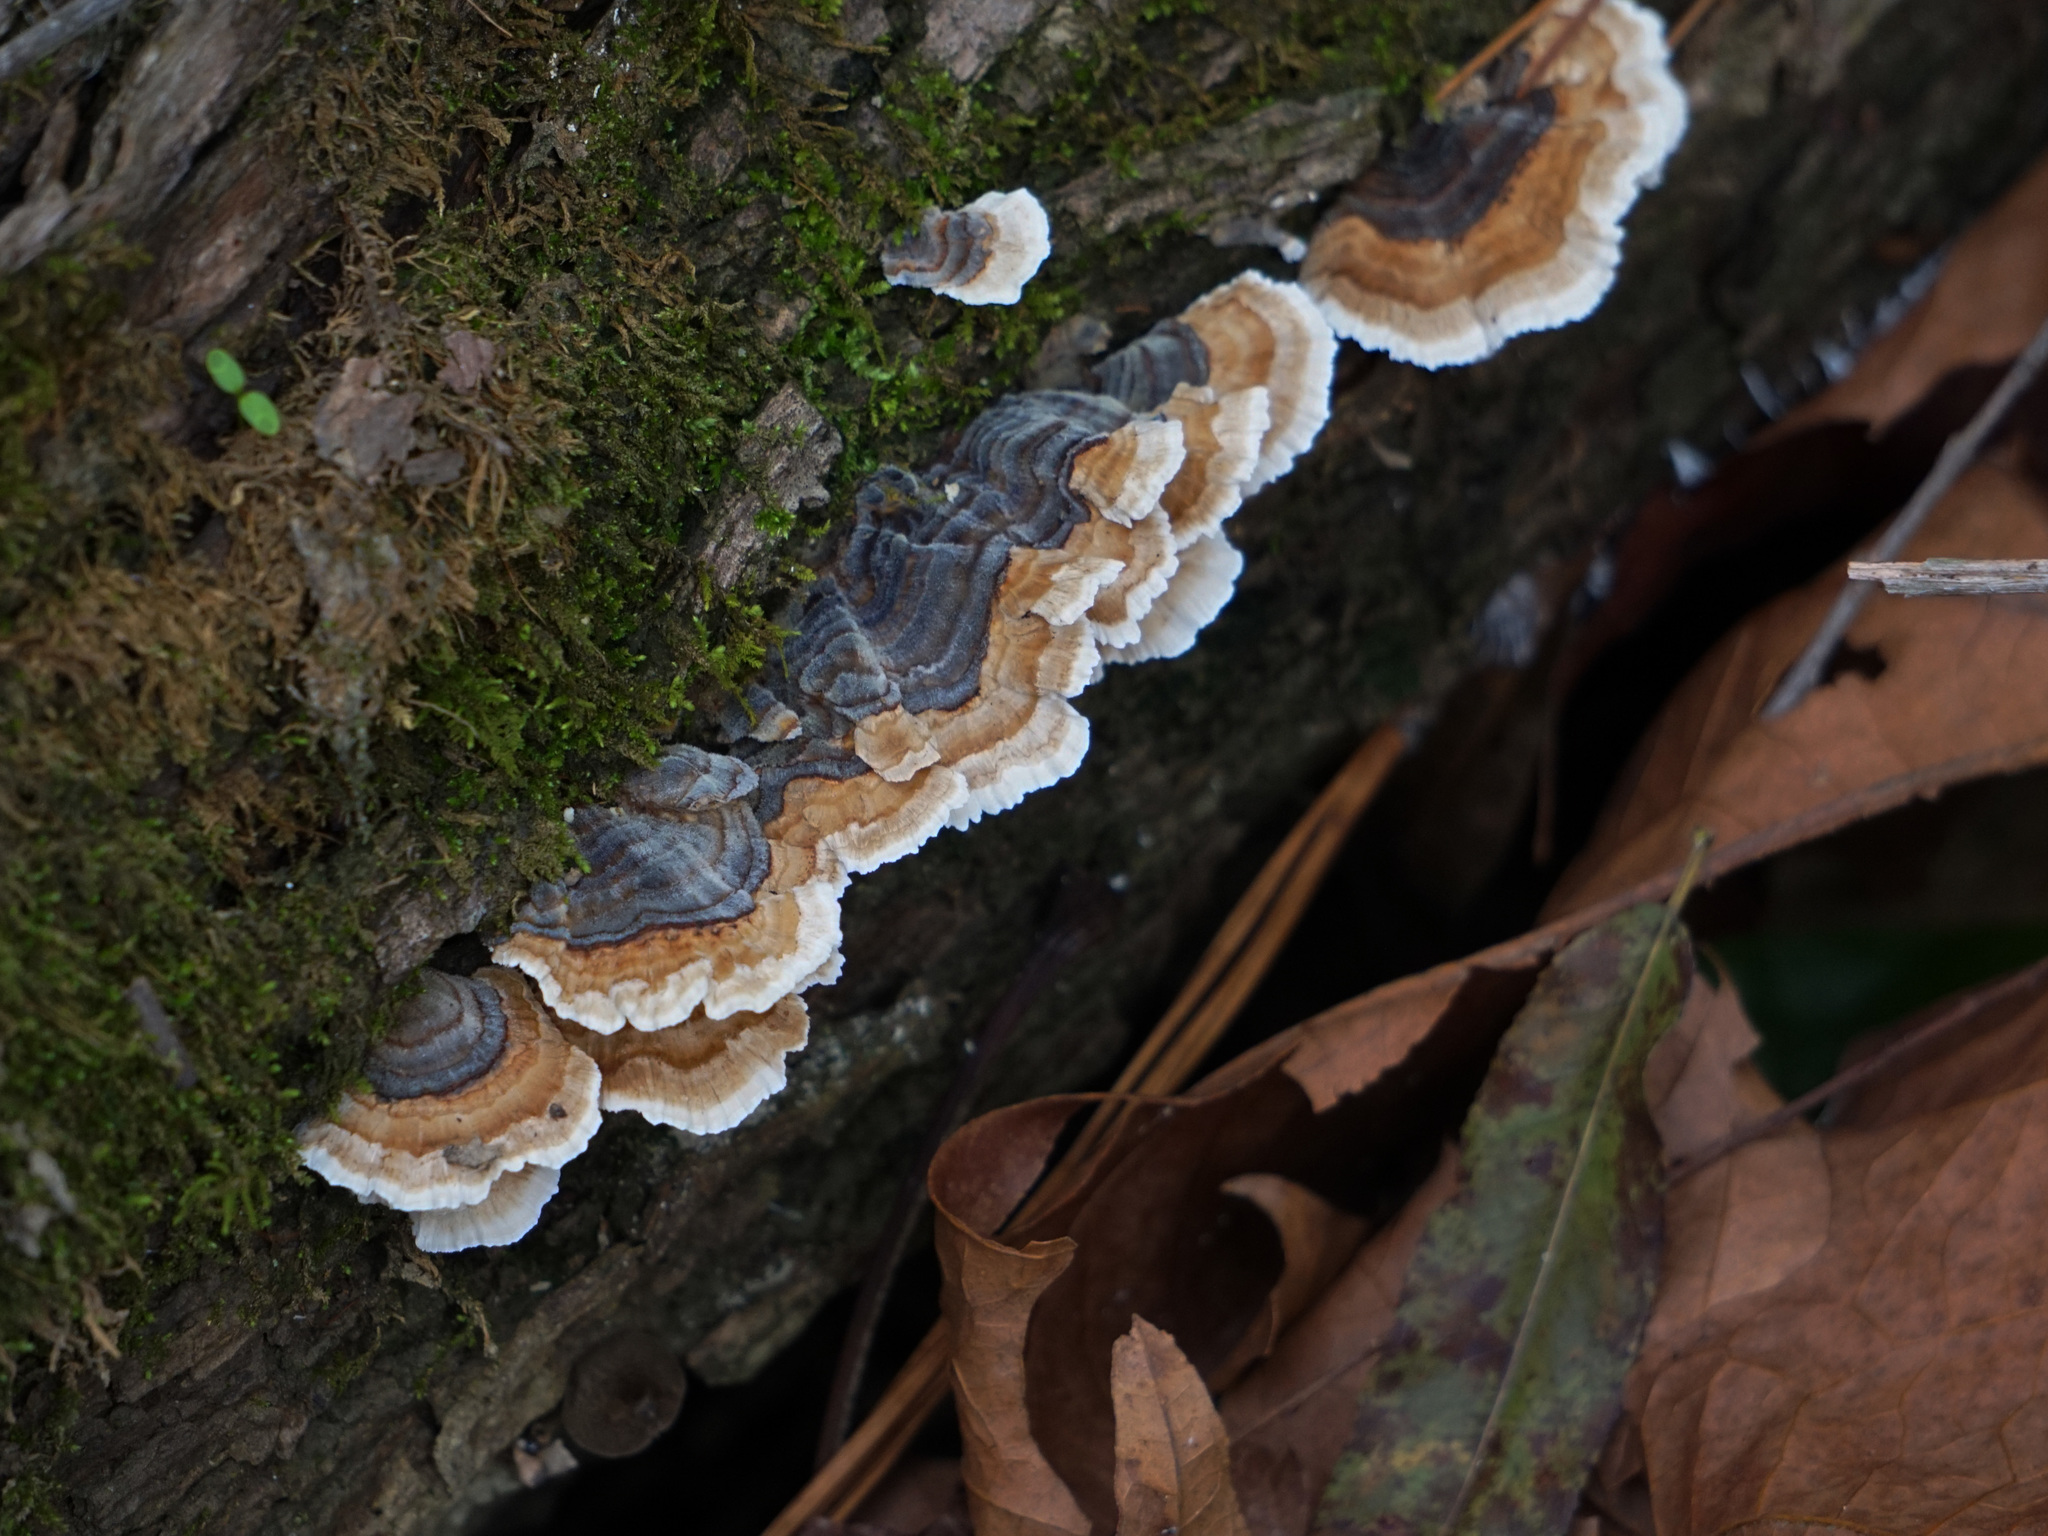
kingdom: Fungi
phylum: Basidiomycota
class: Agaricomycetes
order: Polyporales
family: Polyporaceae
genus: Trametes
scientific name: Trametes versicolor
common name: Turkeytail
